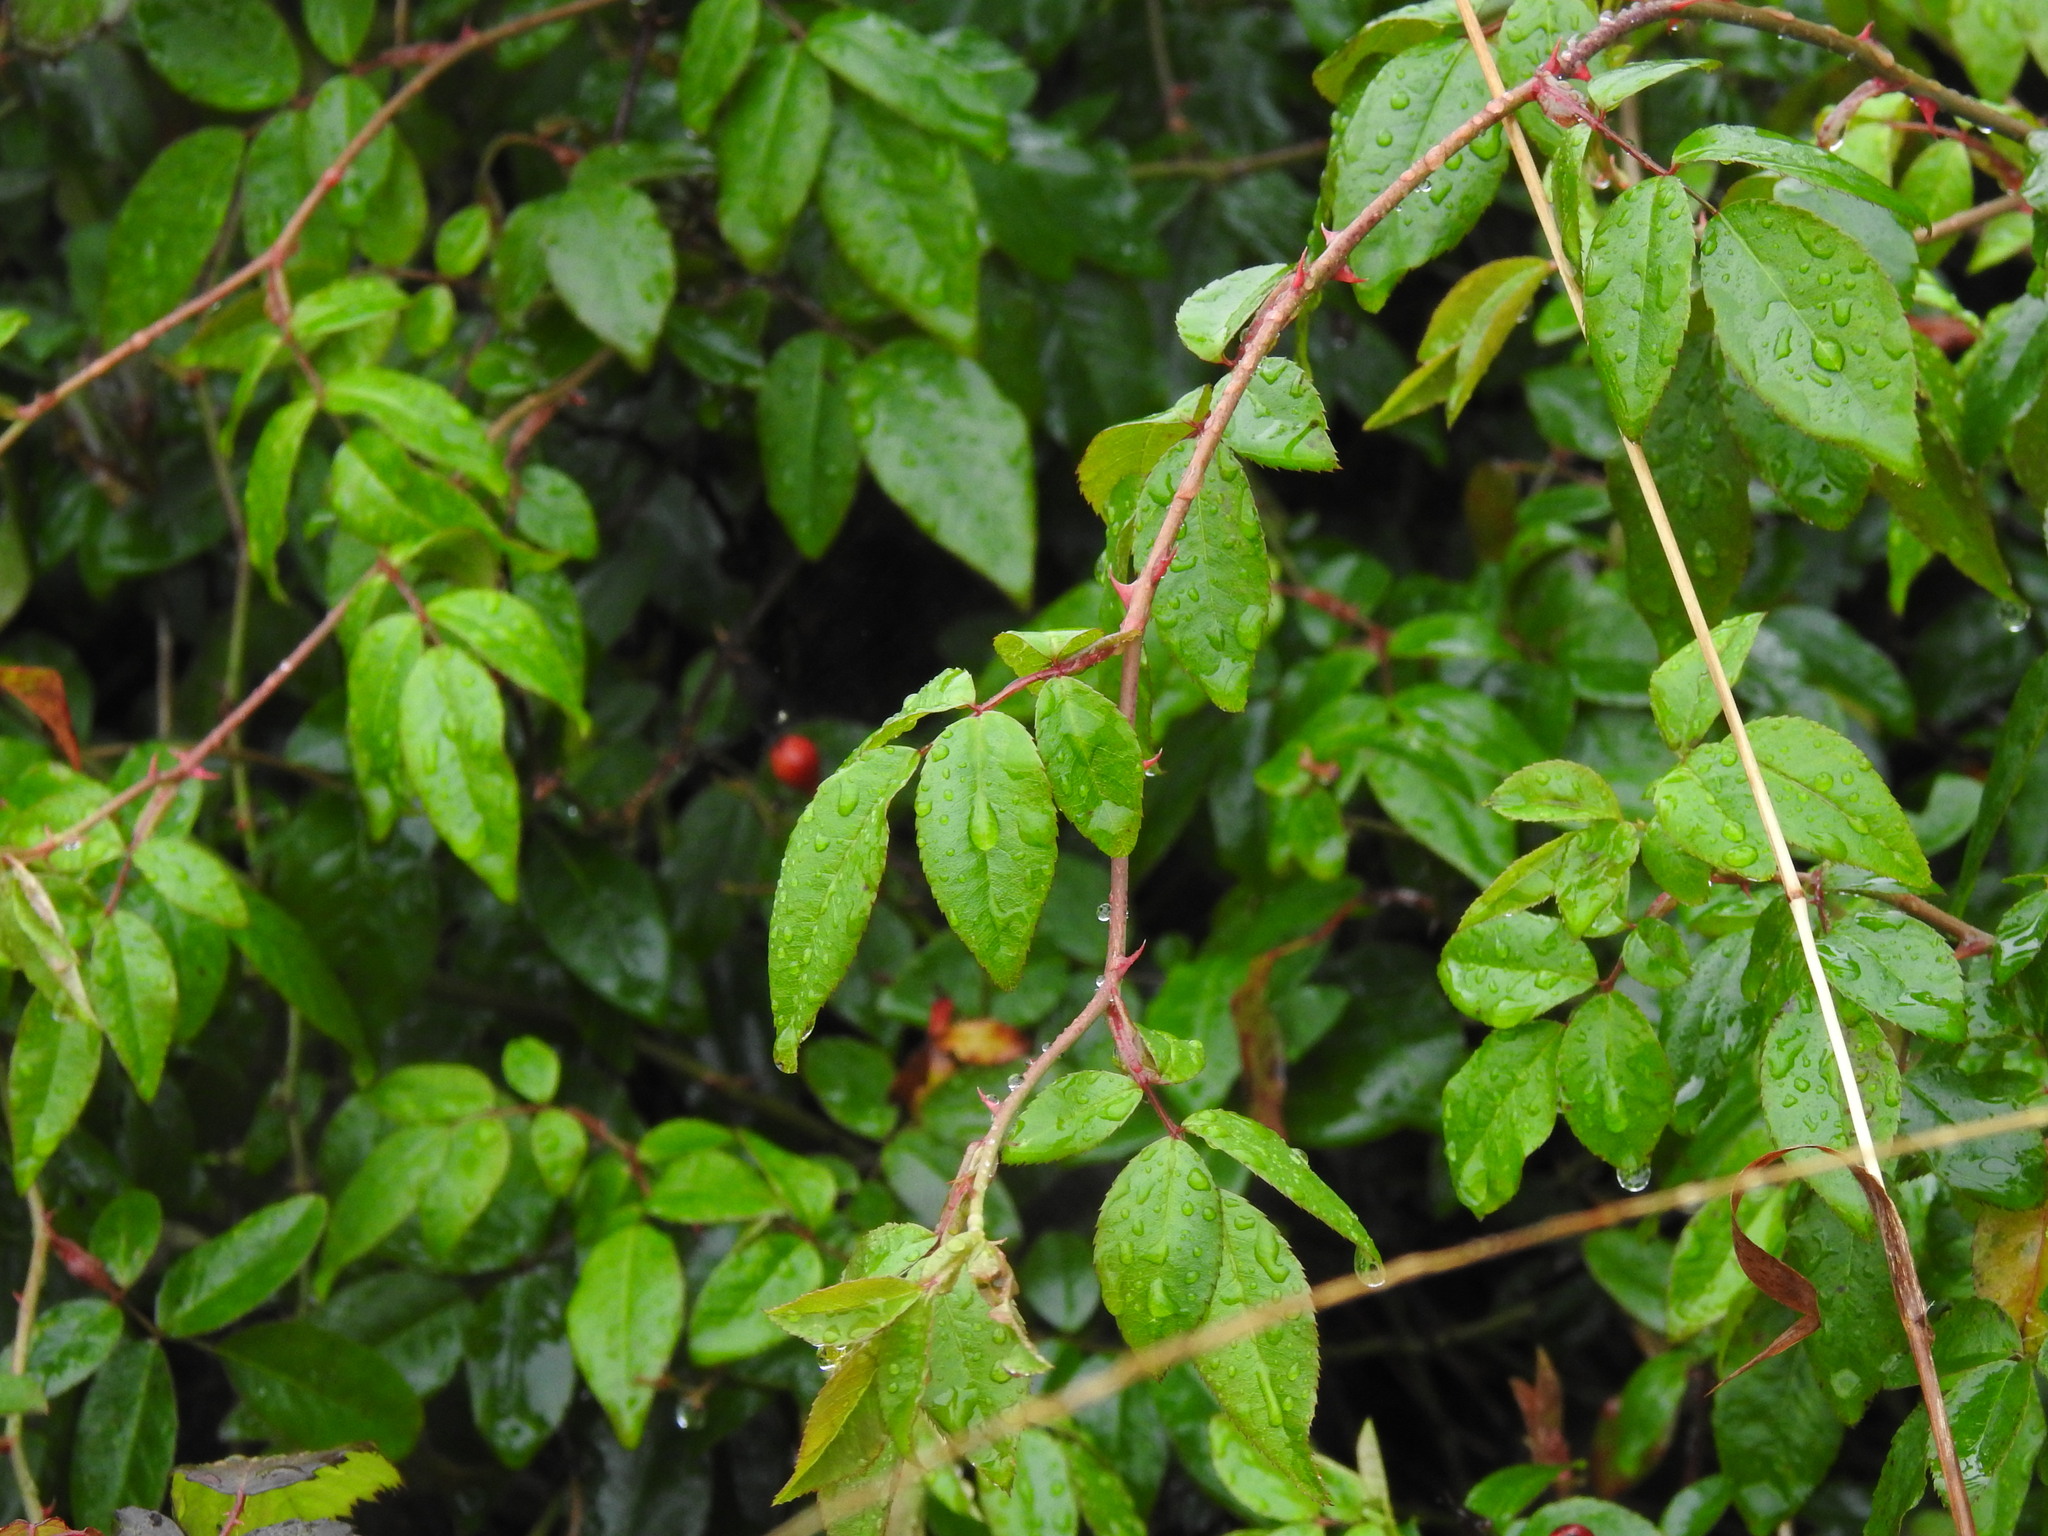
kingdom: Plantae
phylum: Tracheophyta
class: Magnoliopsida
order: Rosales
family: Rosaceae
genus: Rosa
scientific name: Rosa sempervirens
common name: Evergreen rose
